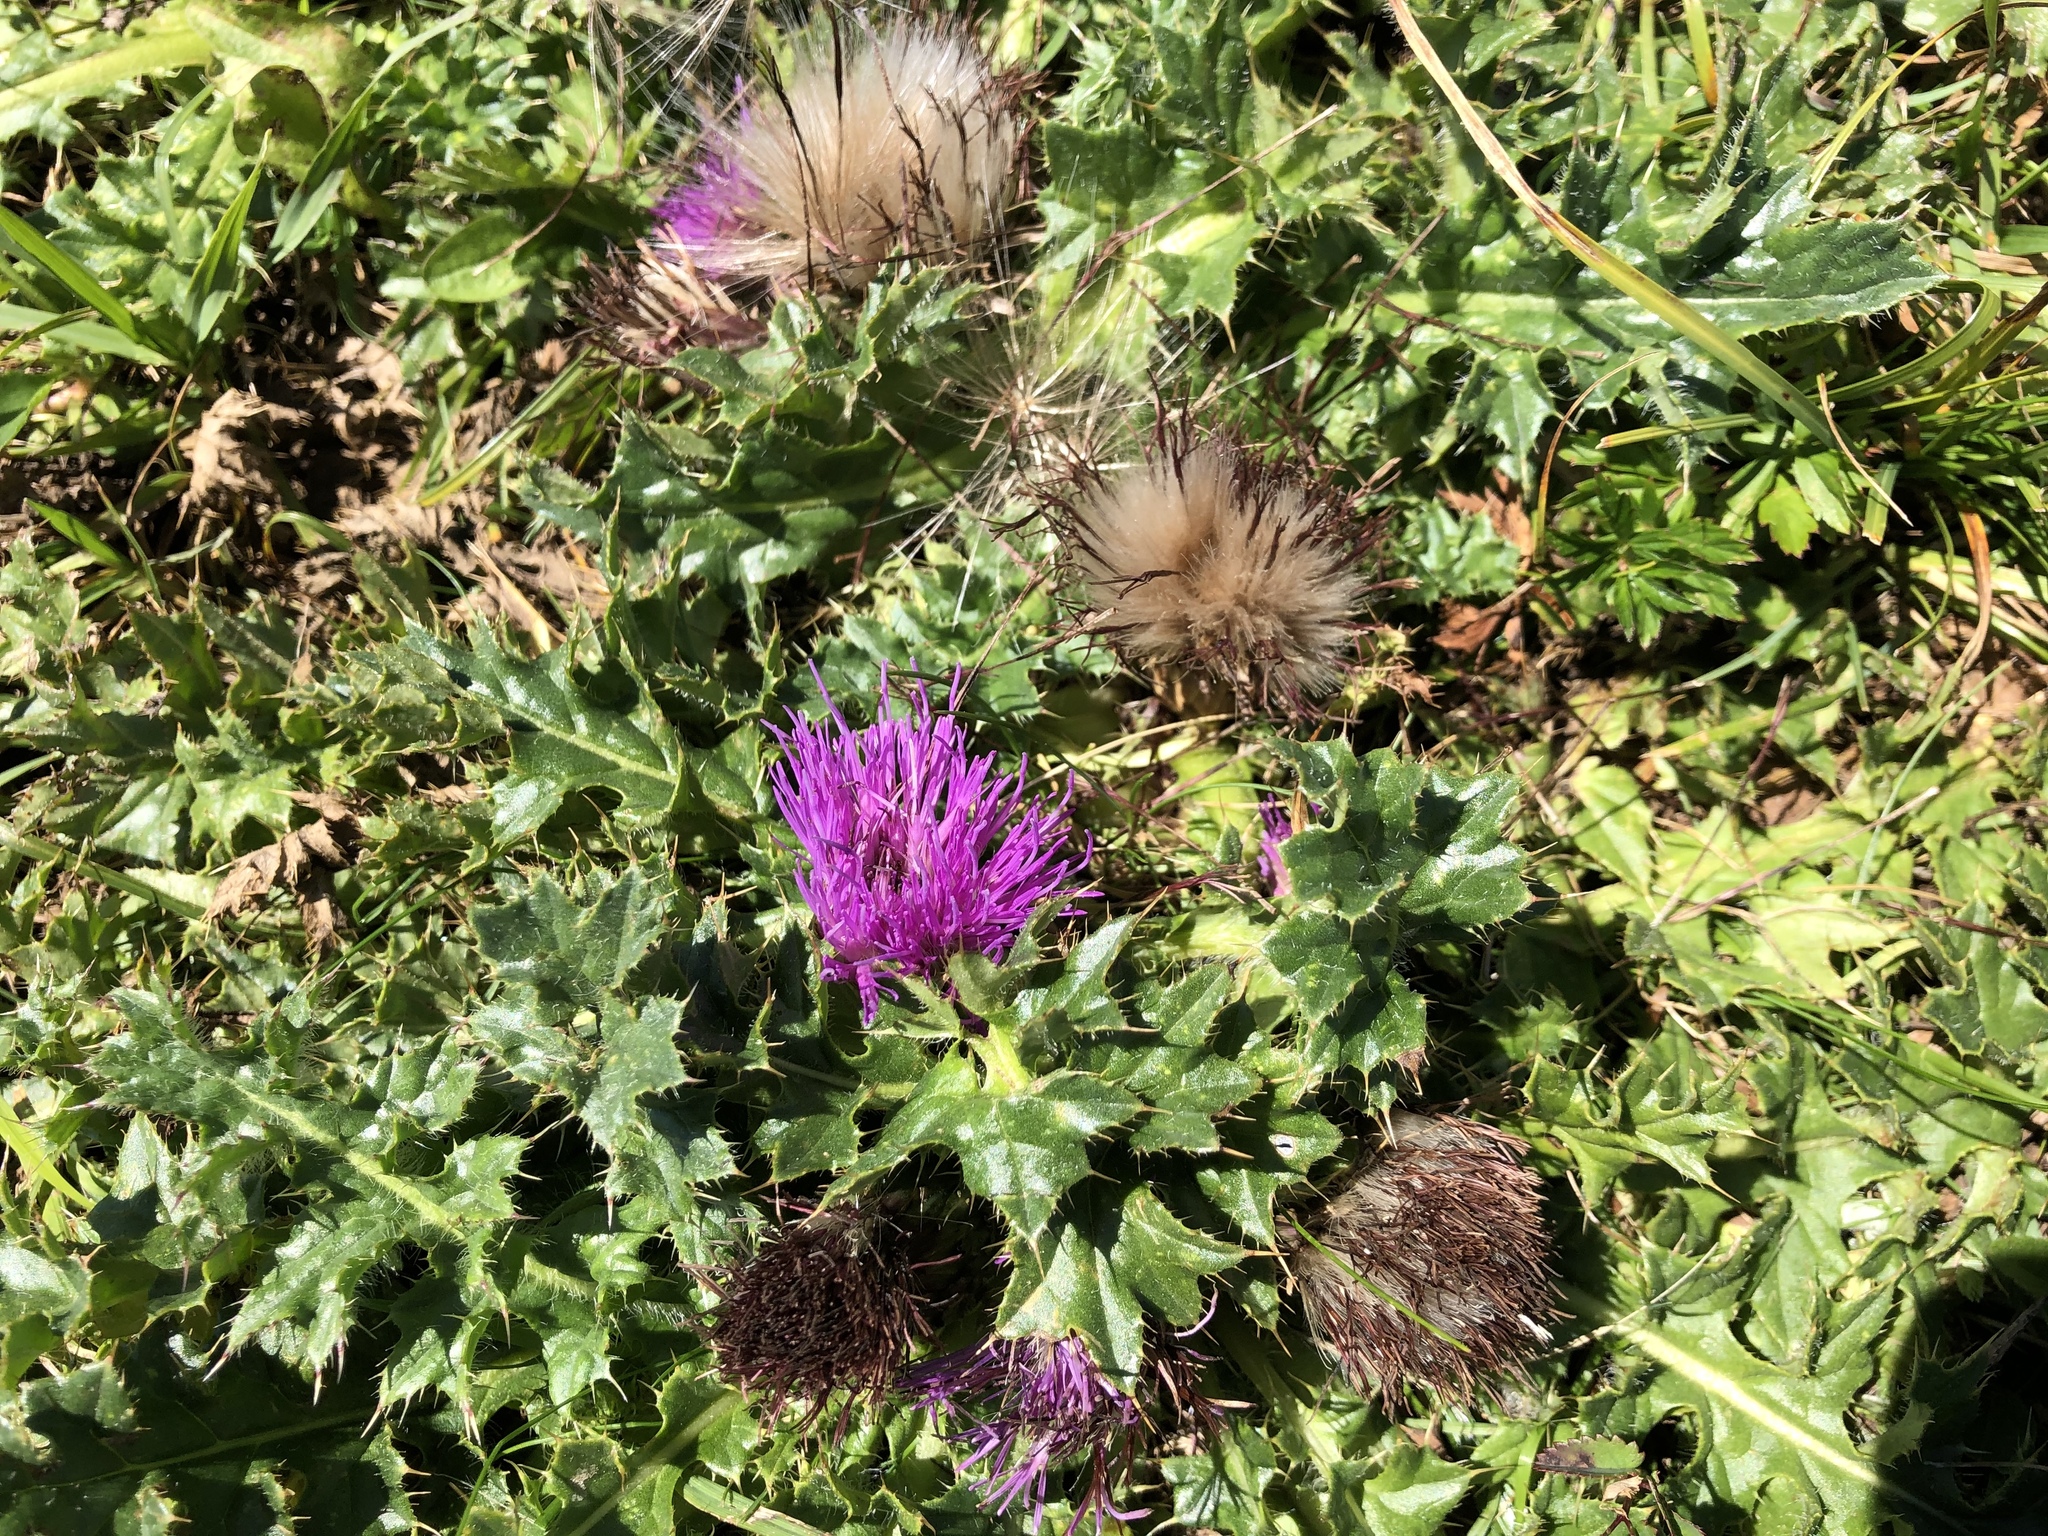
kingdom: Plantae
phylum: Tracheophyta
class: Magnoliopsida
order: Asterales
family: Asteraceae
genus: Cirsium
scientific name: Cirsium acaulon
